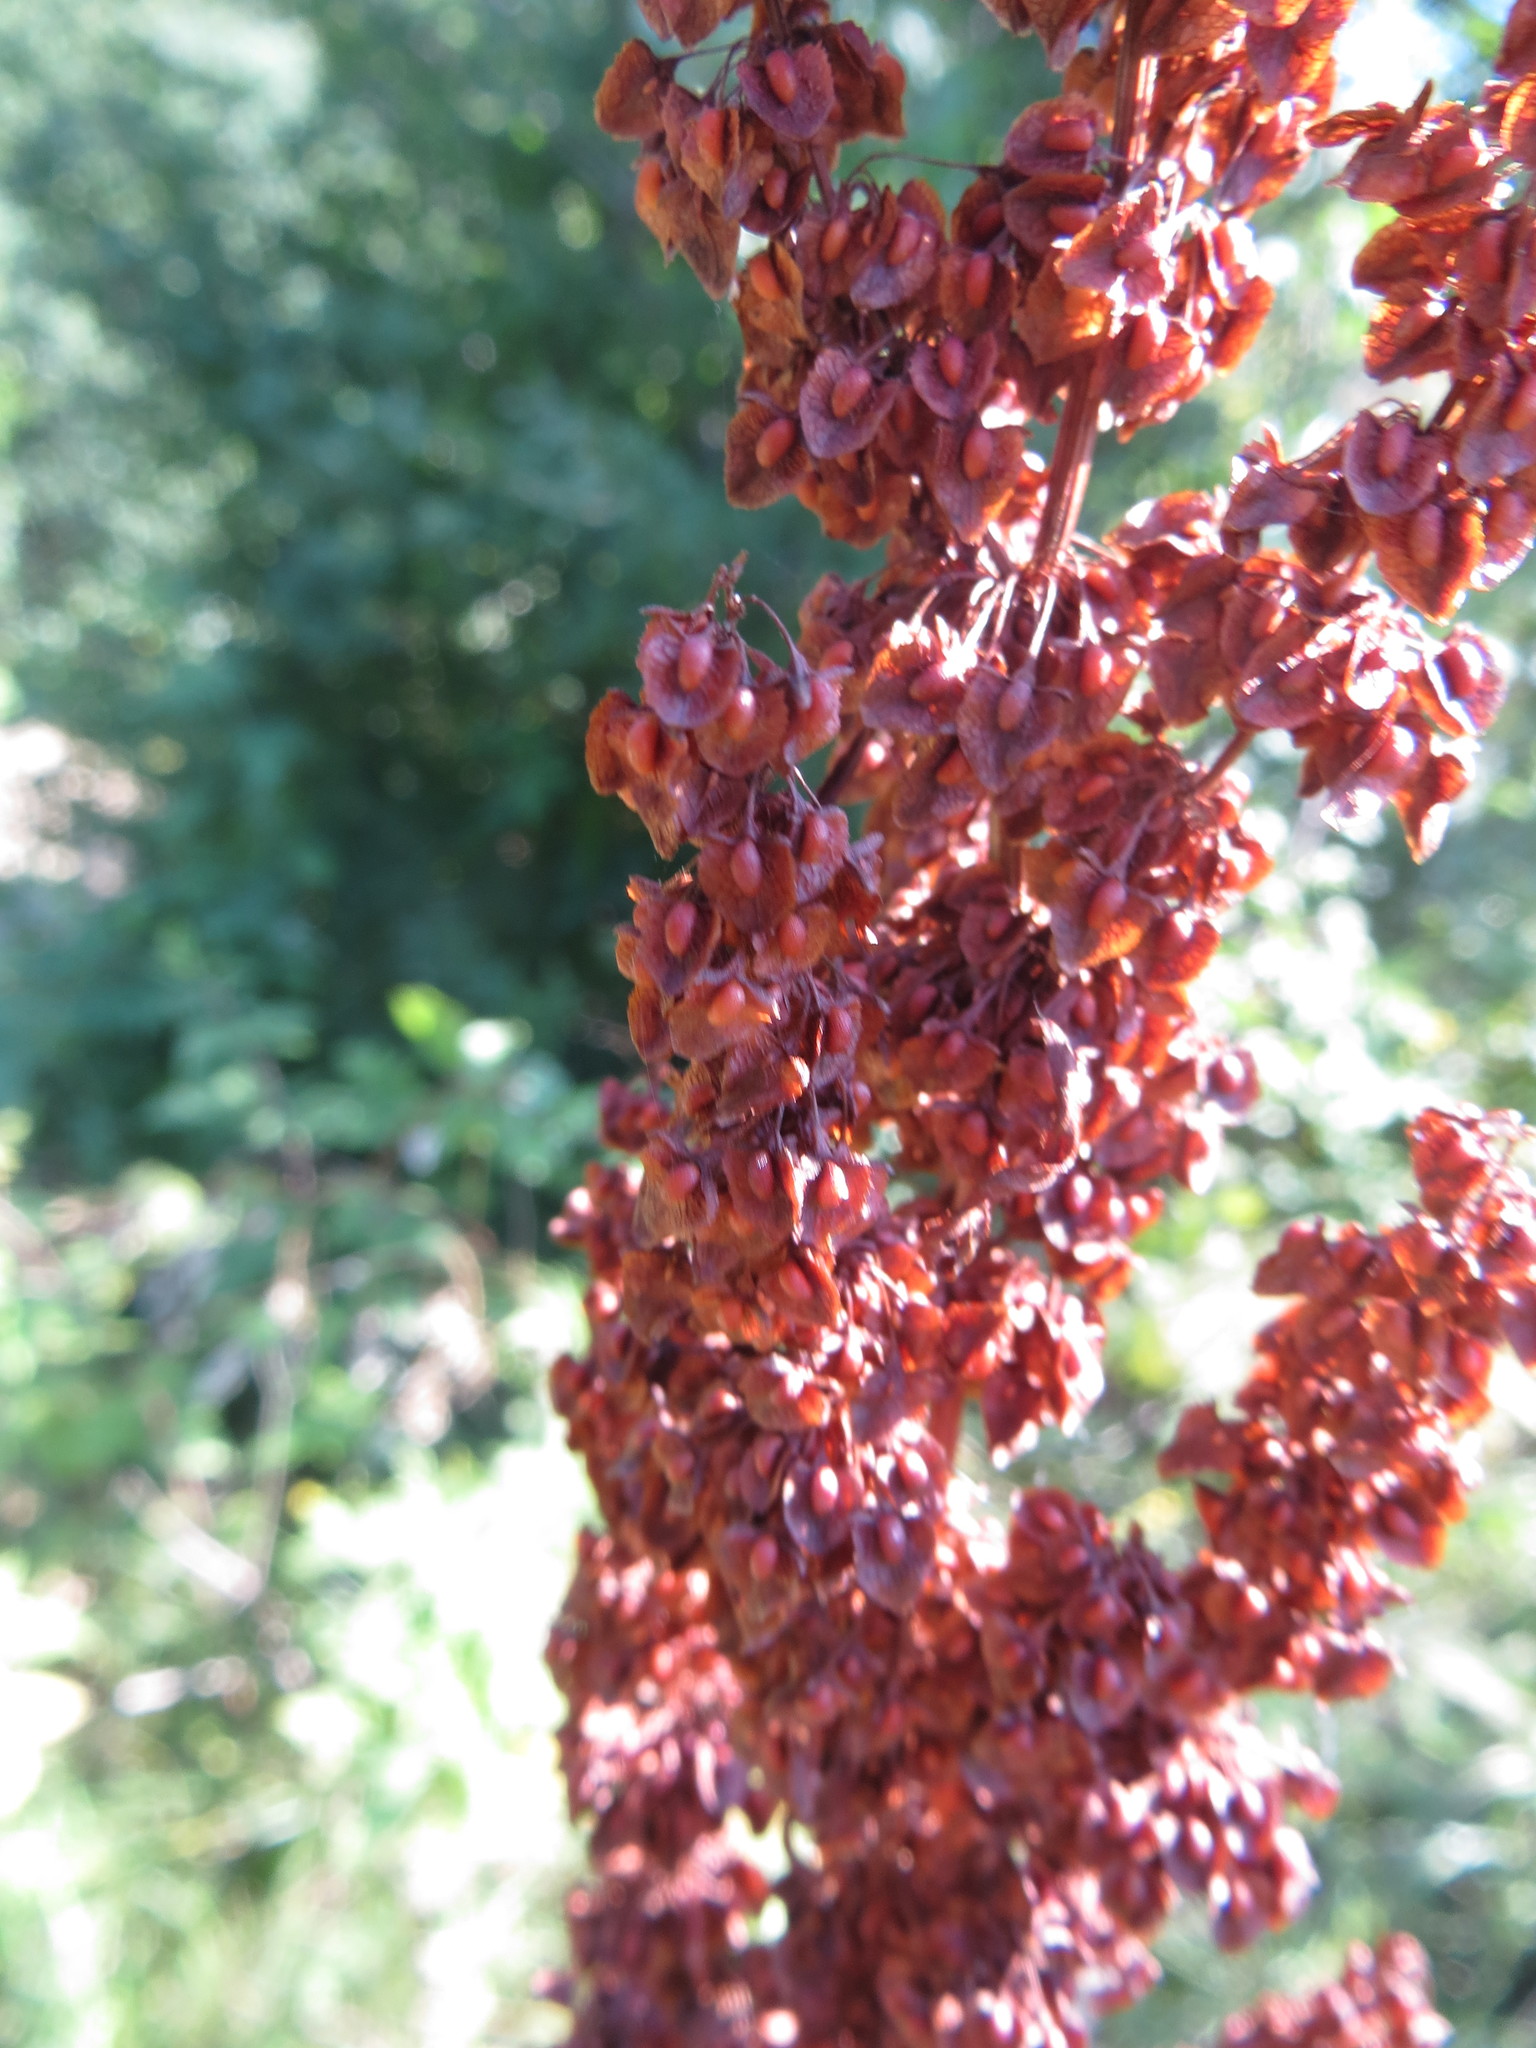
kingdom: Plantae
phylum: Tracheophyta
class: Magnoliopsida
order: Caryophyllales
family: Polygonaceae
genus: Rumex
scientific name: Rumex crispus
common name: Curled dock
